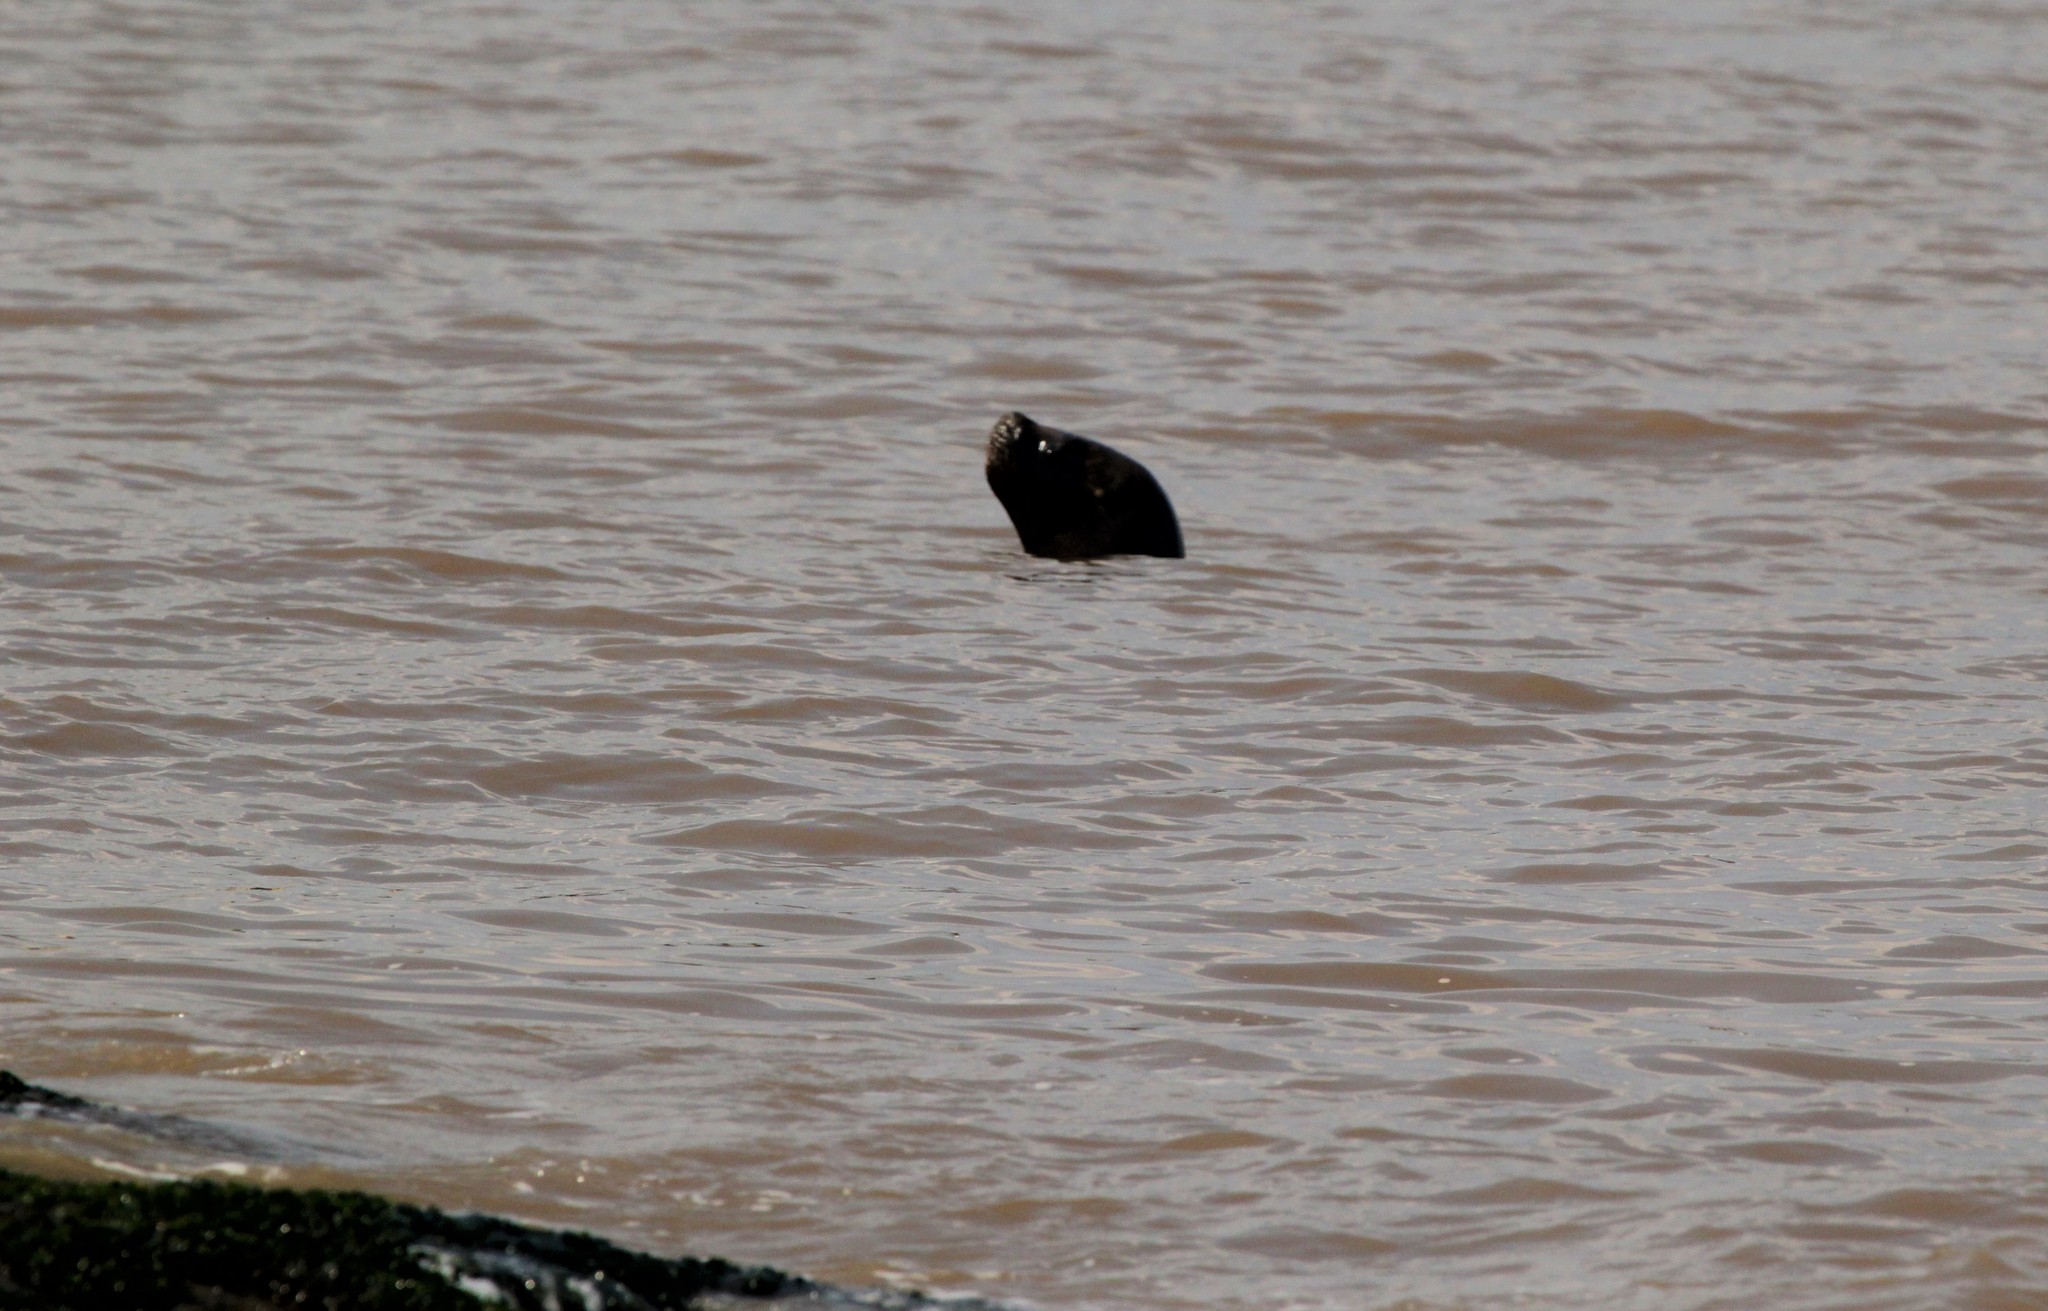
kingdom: Animalia
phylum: Chordata
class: Mammalia
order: Carnivora
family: Otariidae
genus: Otaria
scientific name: Otaria byronia
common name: South american sea lion
